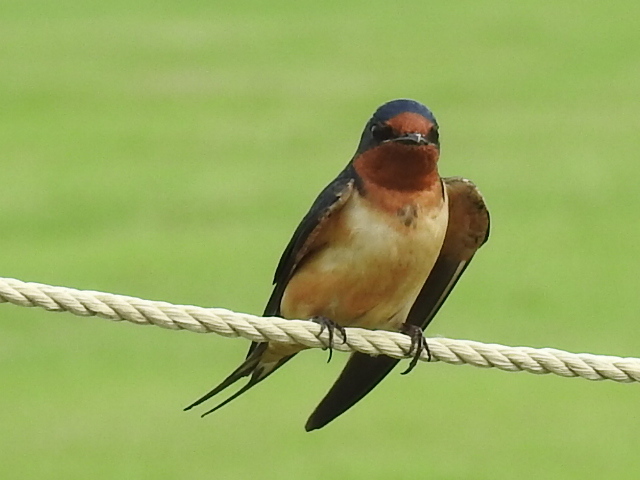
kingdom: Animalia
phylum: Chordata
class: Aves
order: Passeriformes
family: Hirundinidae
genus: Hirundo
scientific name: Hirundo rustica
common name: Barn swallow
